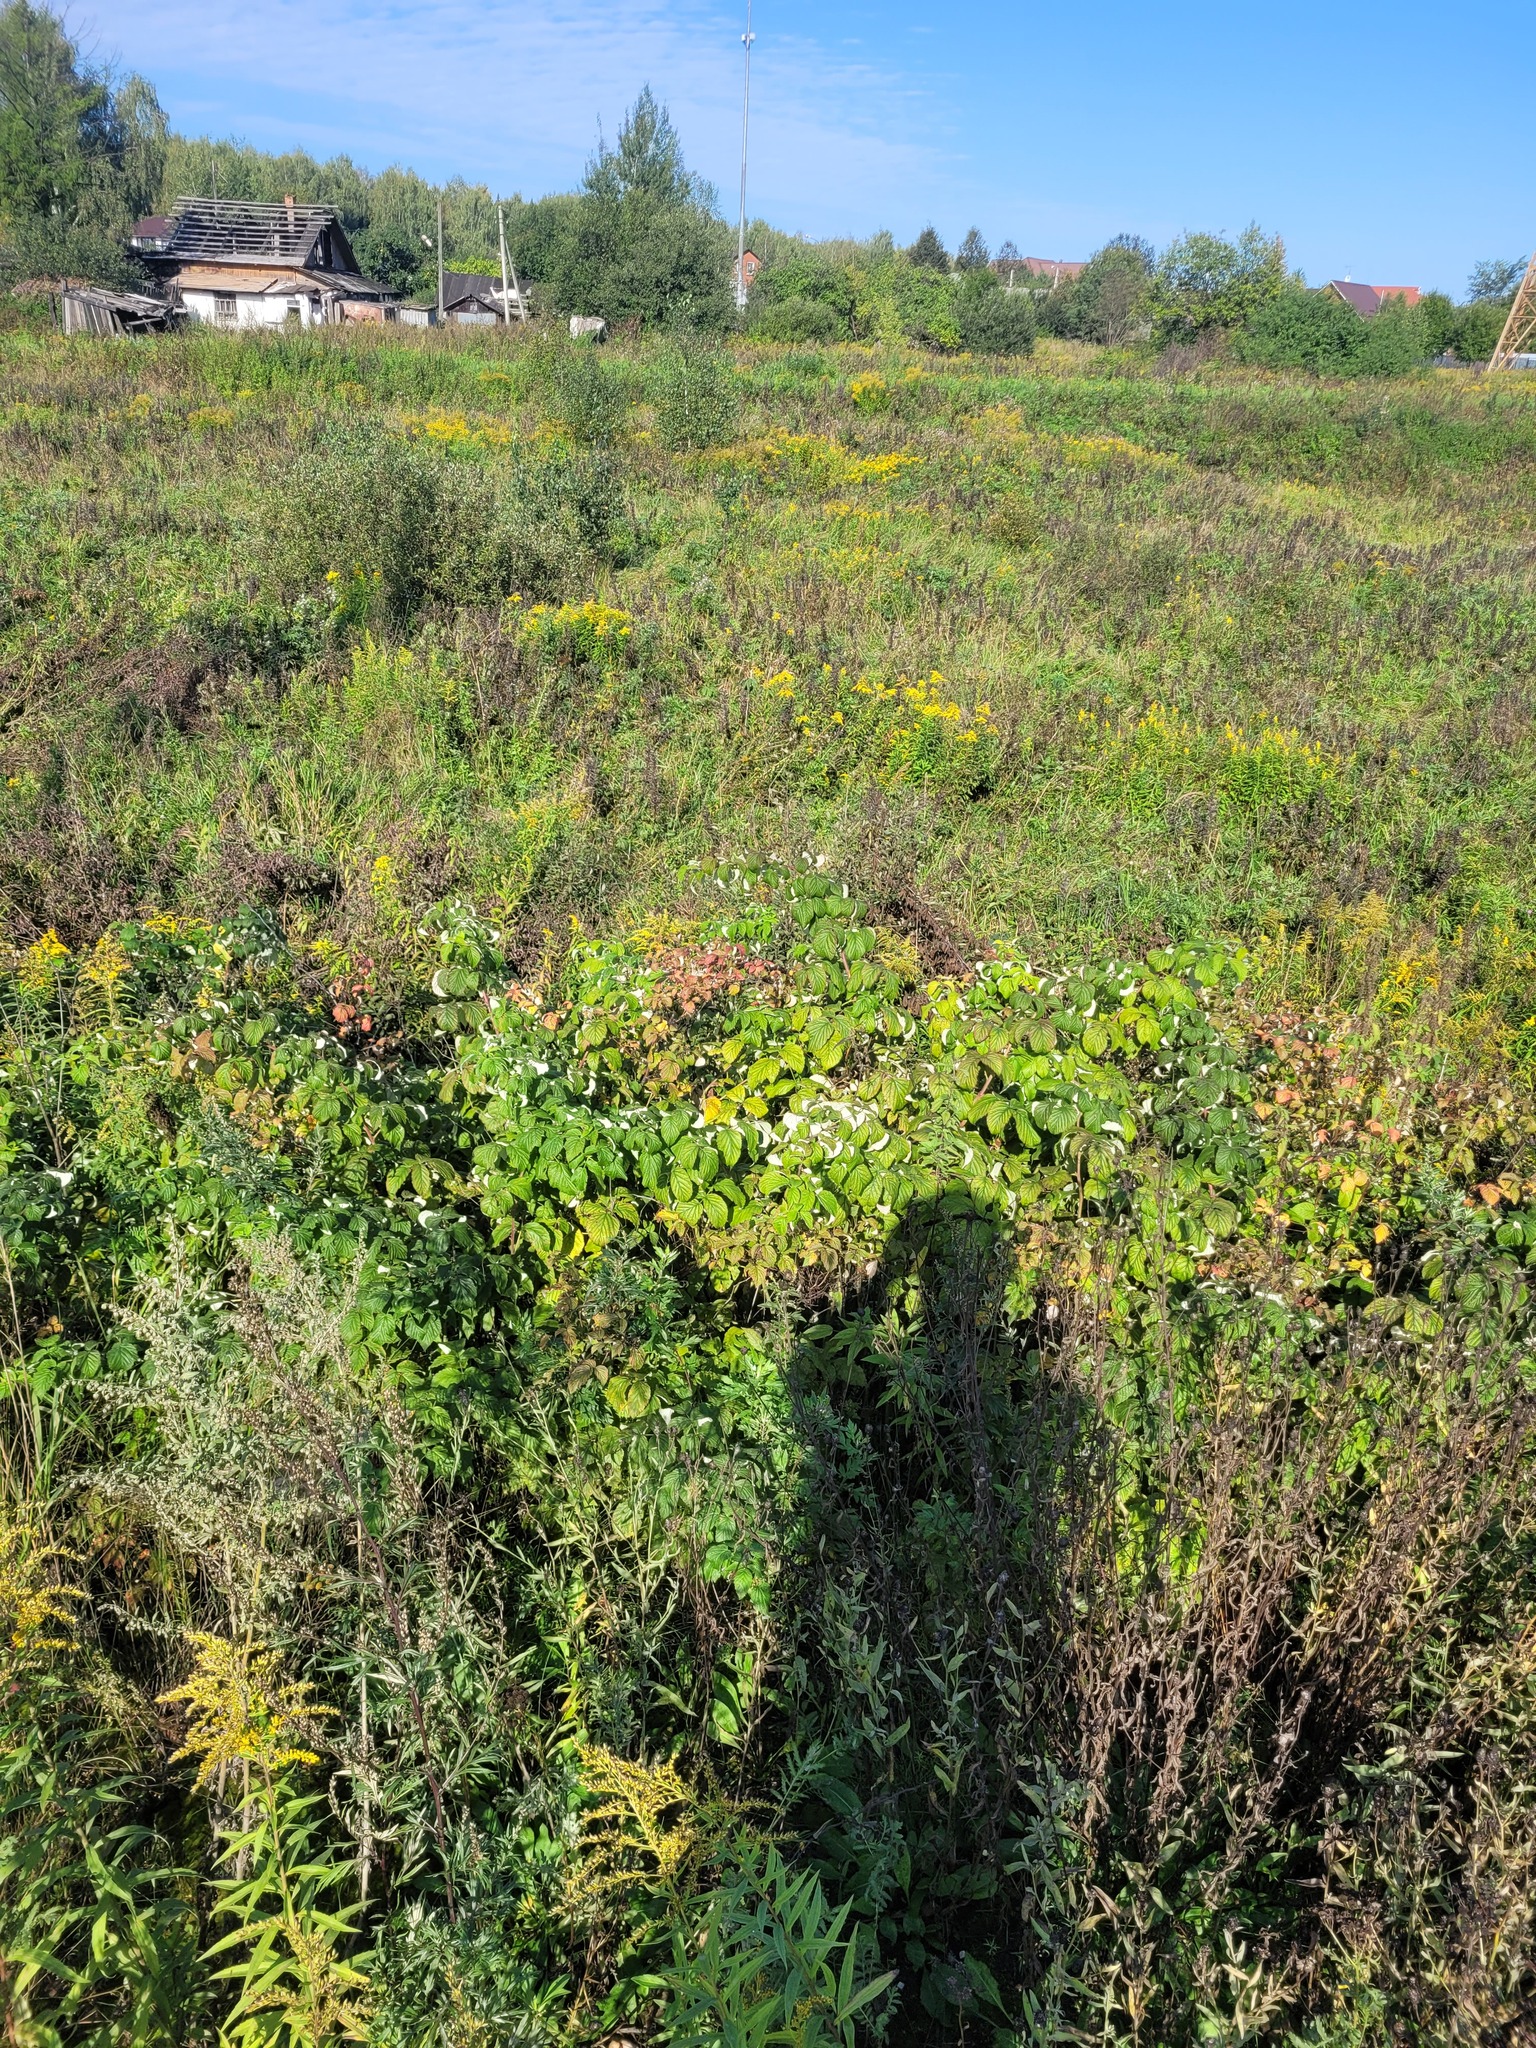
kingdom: Plantae
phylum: Tracheophyta
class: Magnoliopsida
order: Rosales
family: Rosaceae
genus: Rubus
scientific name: Rubus idaeus
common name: Raspberry
